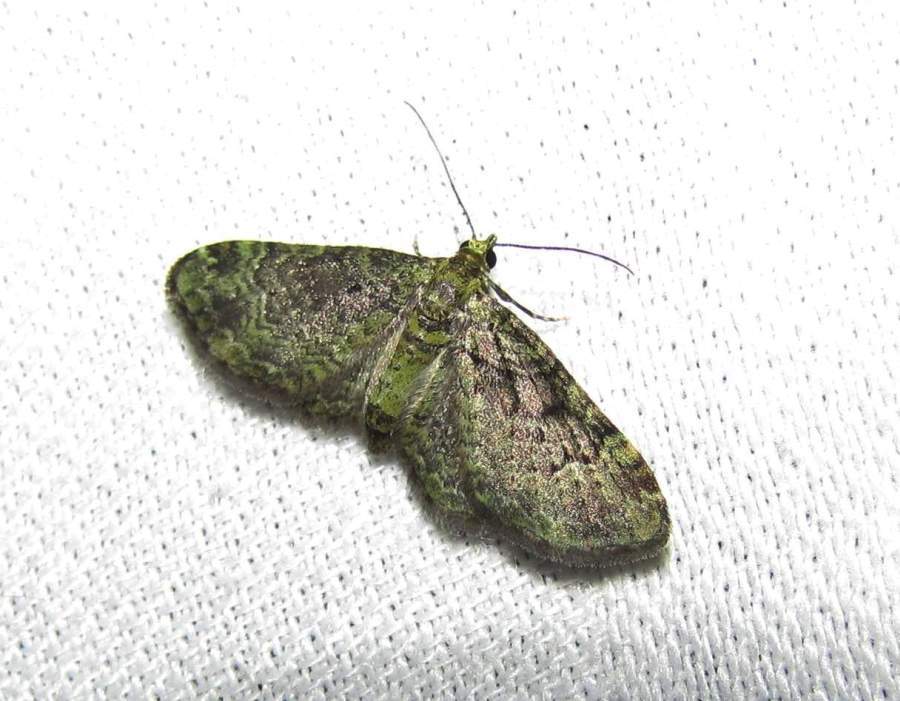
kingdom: Animalia
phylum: Arthropoda
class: Insecta
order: Lepidoptera
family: Geometridae
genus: Pasiphila
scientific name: Pasiphila rectangulata
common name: Green pug
